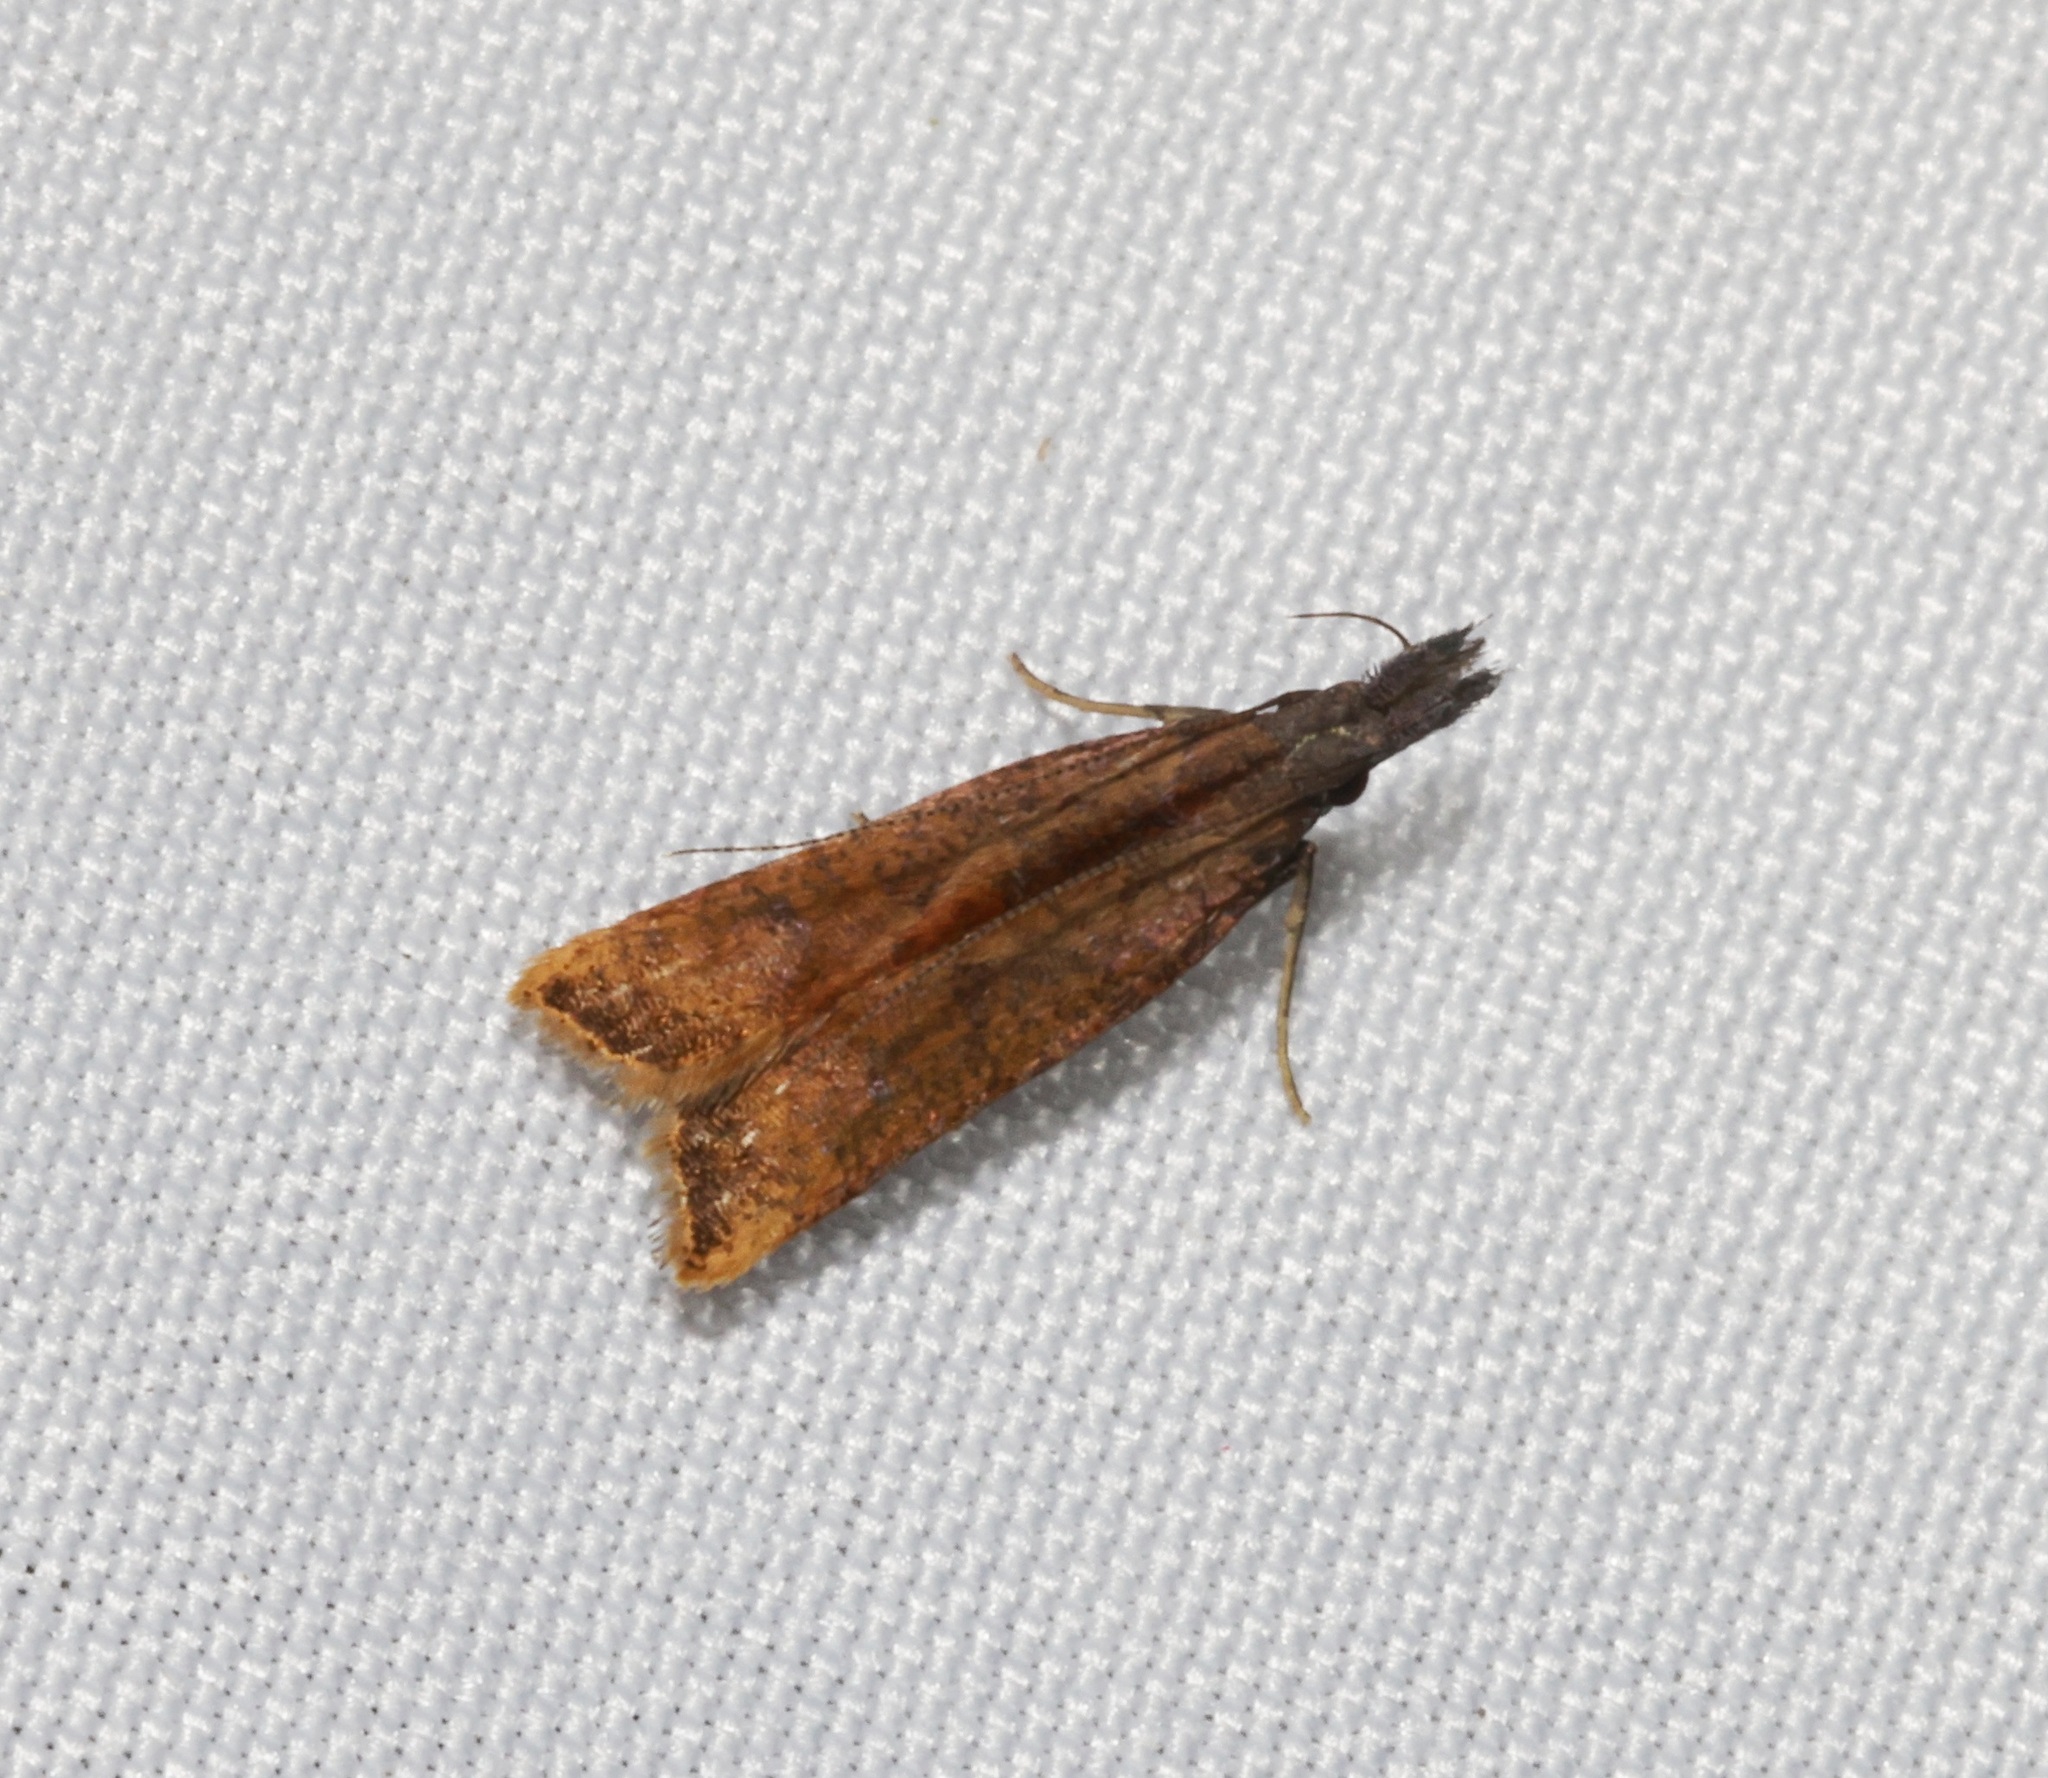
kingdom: Animalia
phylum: Arthropoda
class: Insecta
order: Lepidoptera
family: Gelechiidae
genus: Dichomeris
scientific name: Dichomeris zonata
